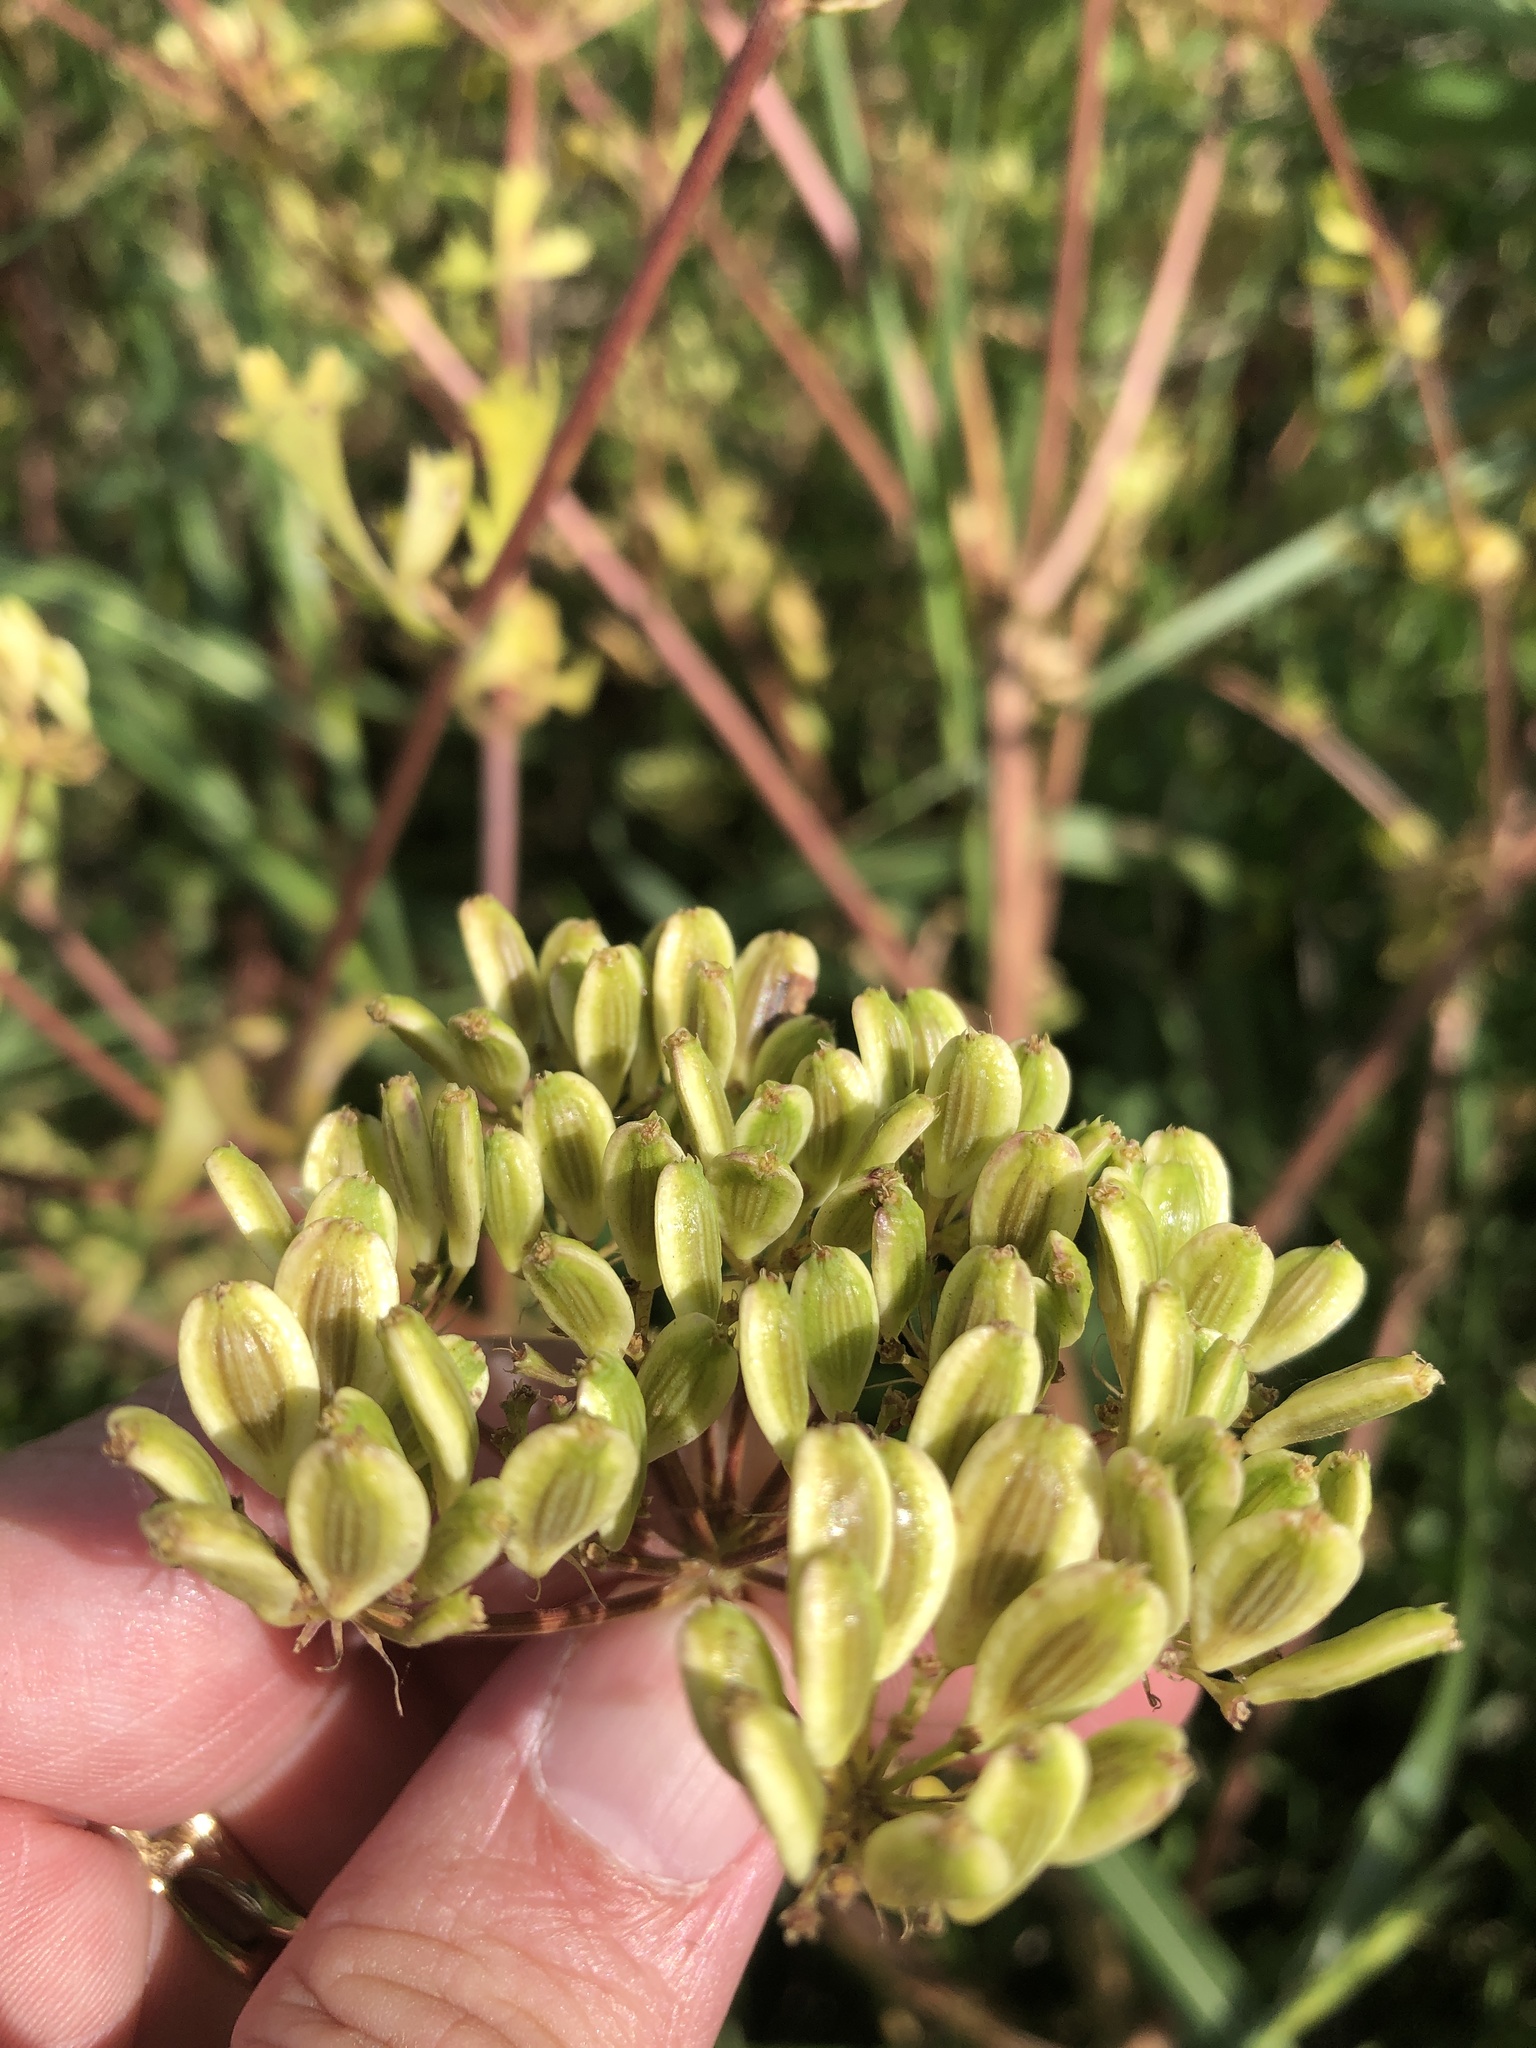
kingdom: Plantae
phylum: Tracheophyta
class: Magnoliopsida
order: Apiales
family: Apiaceae
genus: Polytaenia
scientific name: Polytaenia texana
